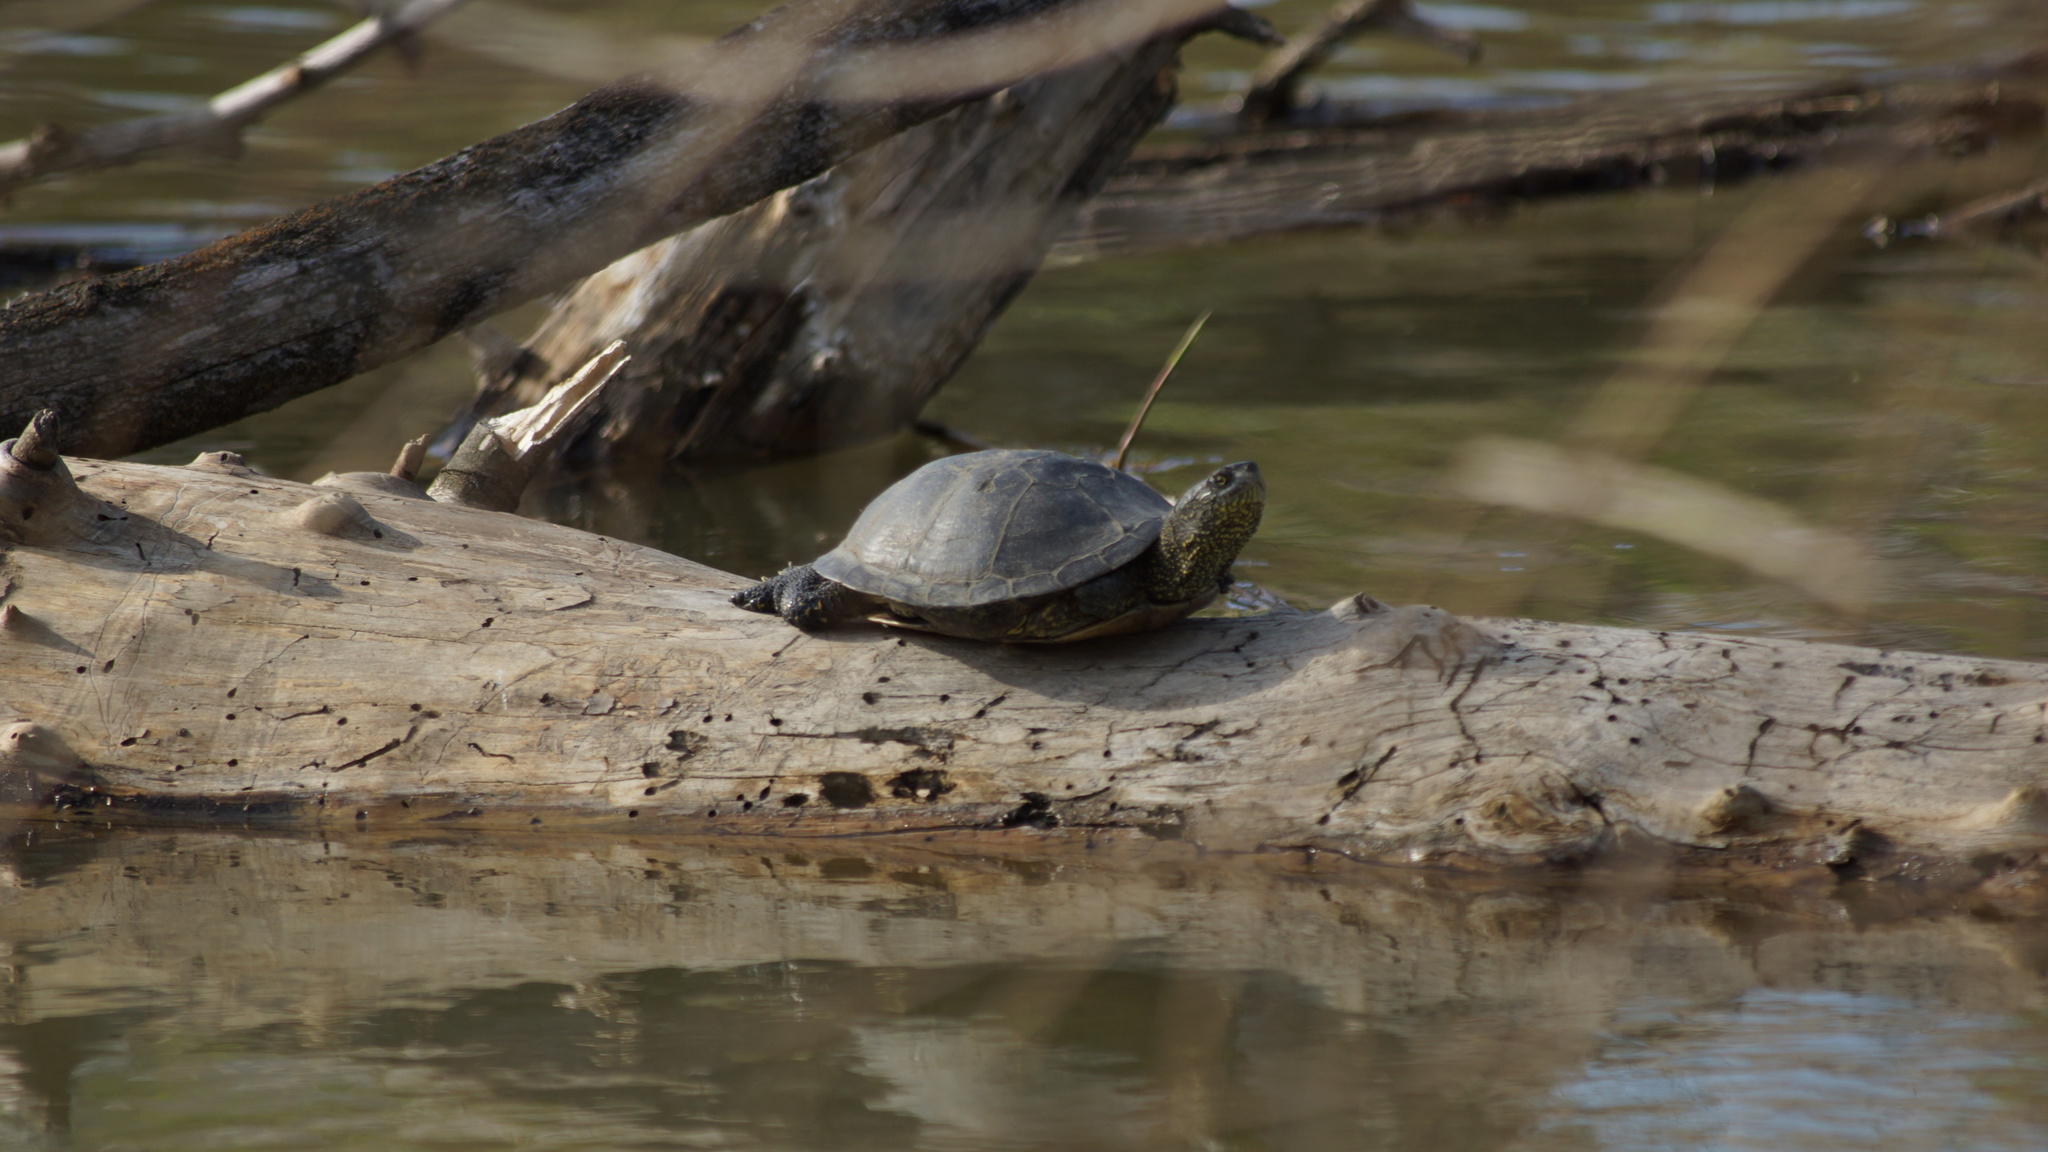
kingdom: Animalia
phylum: Chordata
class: Testudines
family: Emydidae
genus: Emys
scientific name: Emys orbicularis
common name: European pond turtle
